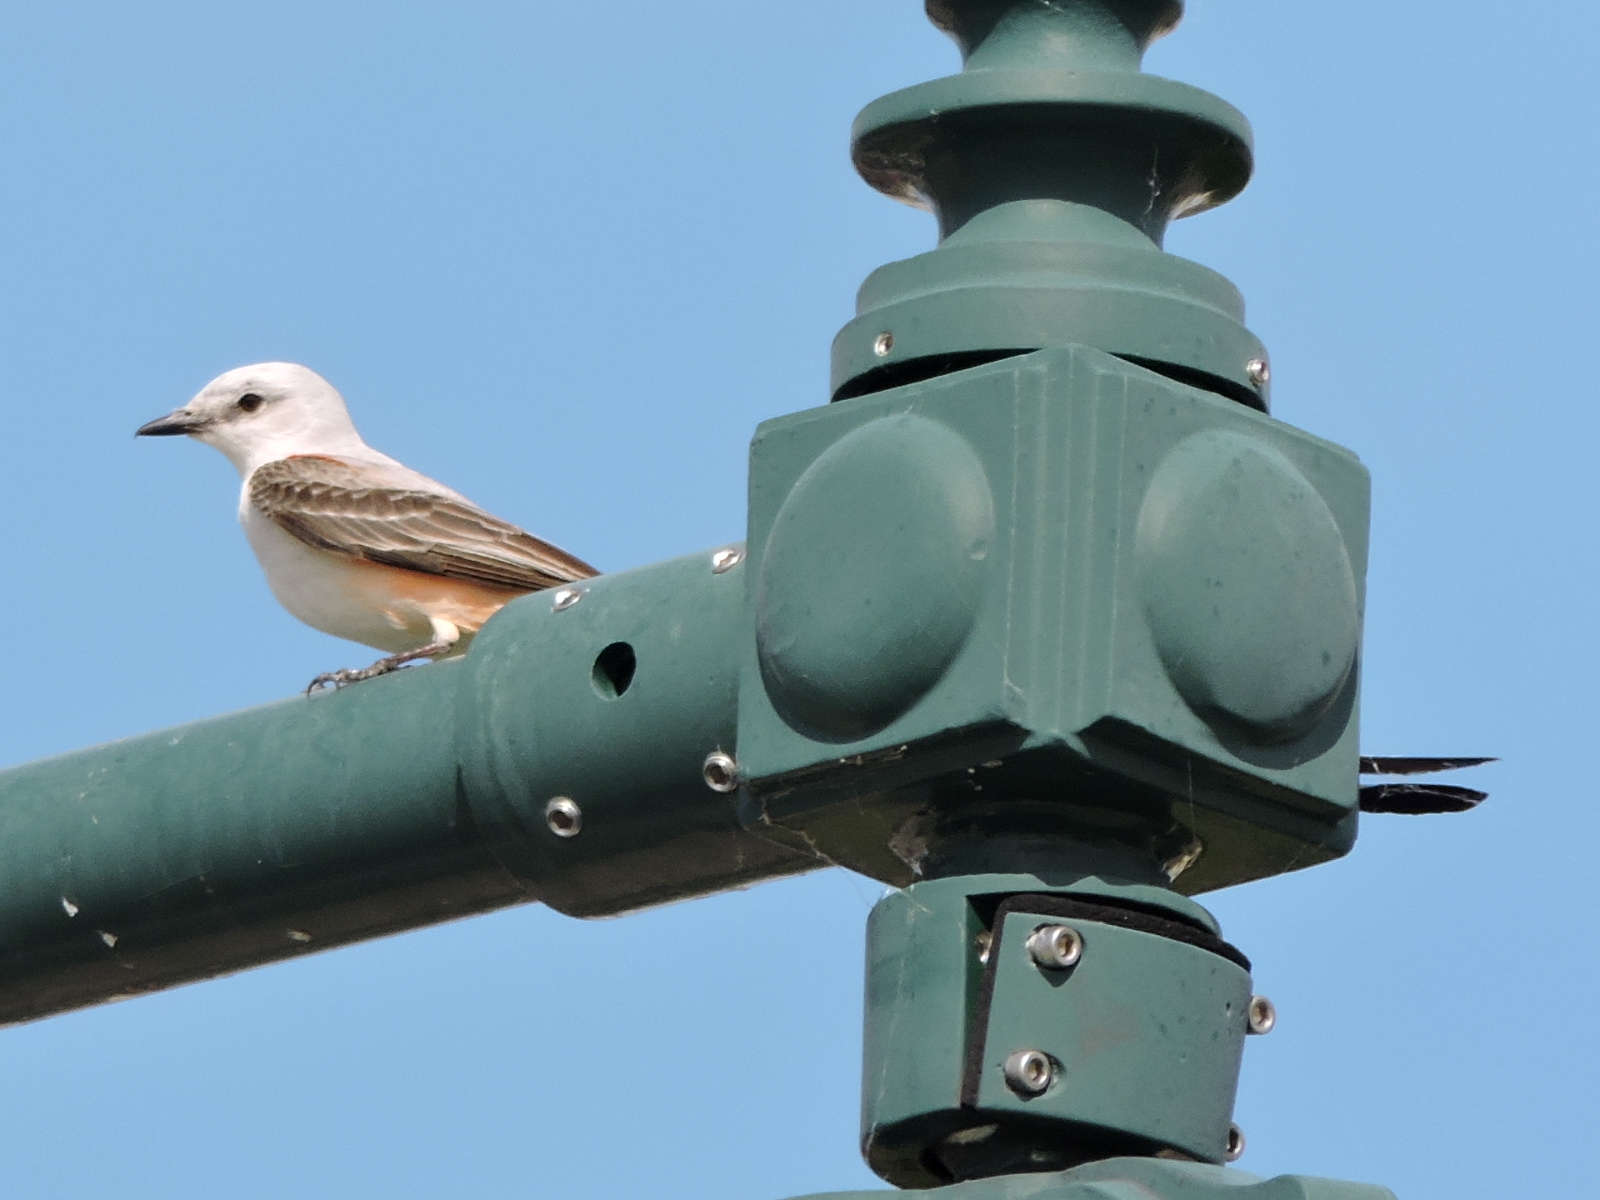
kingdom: Animalia
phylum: Chordata
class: Aves
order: Passeriformes
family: Tyrannidae
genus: Tyrannus
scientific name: Tyrannus forficatus
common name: Scissor-tailed flycatcher
